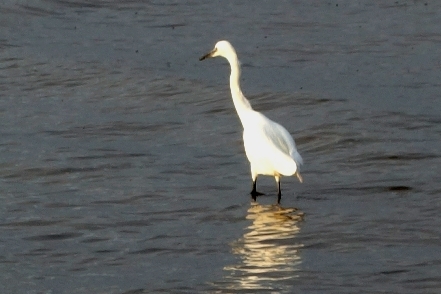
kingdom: Animalia
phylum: Chordata
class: Aves
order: Pelecaniformes
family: Ardeidae
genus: Egretta
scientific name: Egretta garzetta
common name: Little egret
